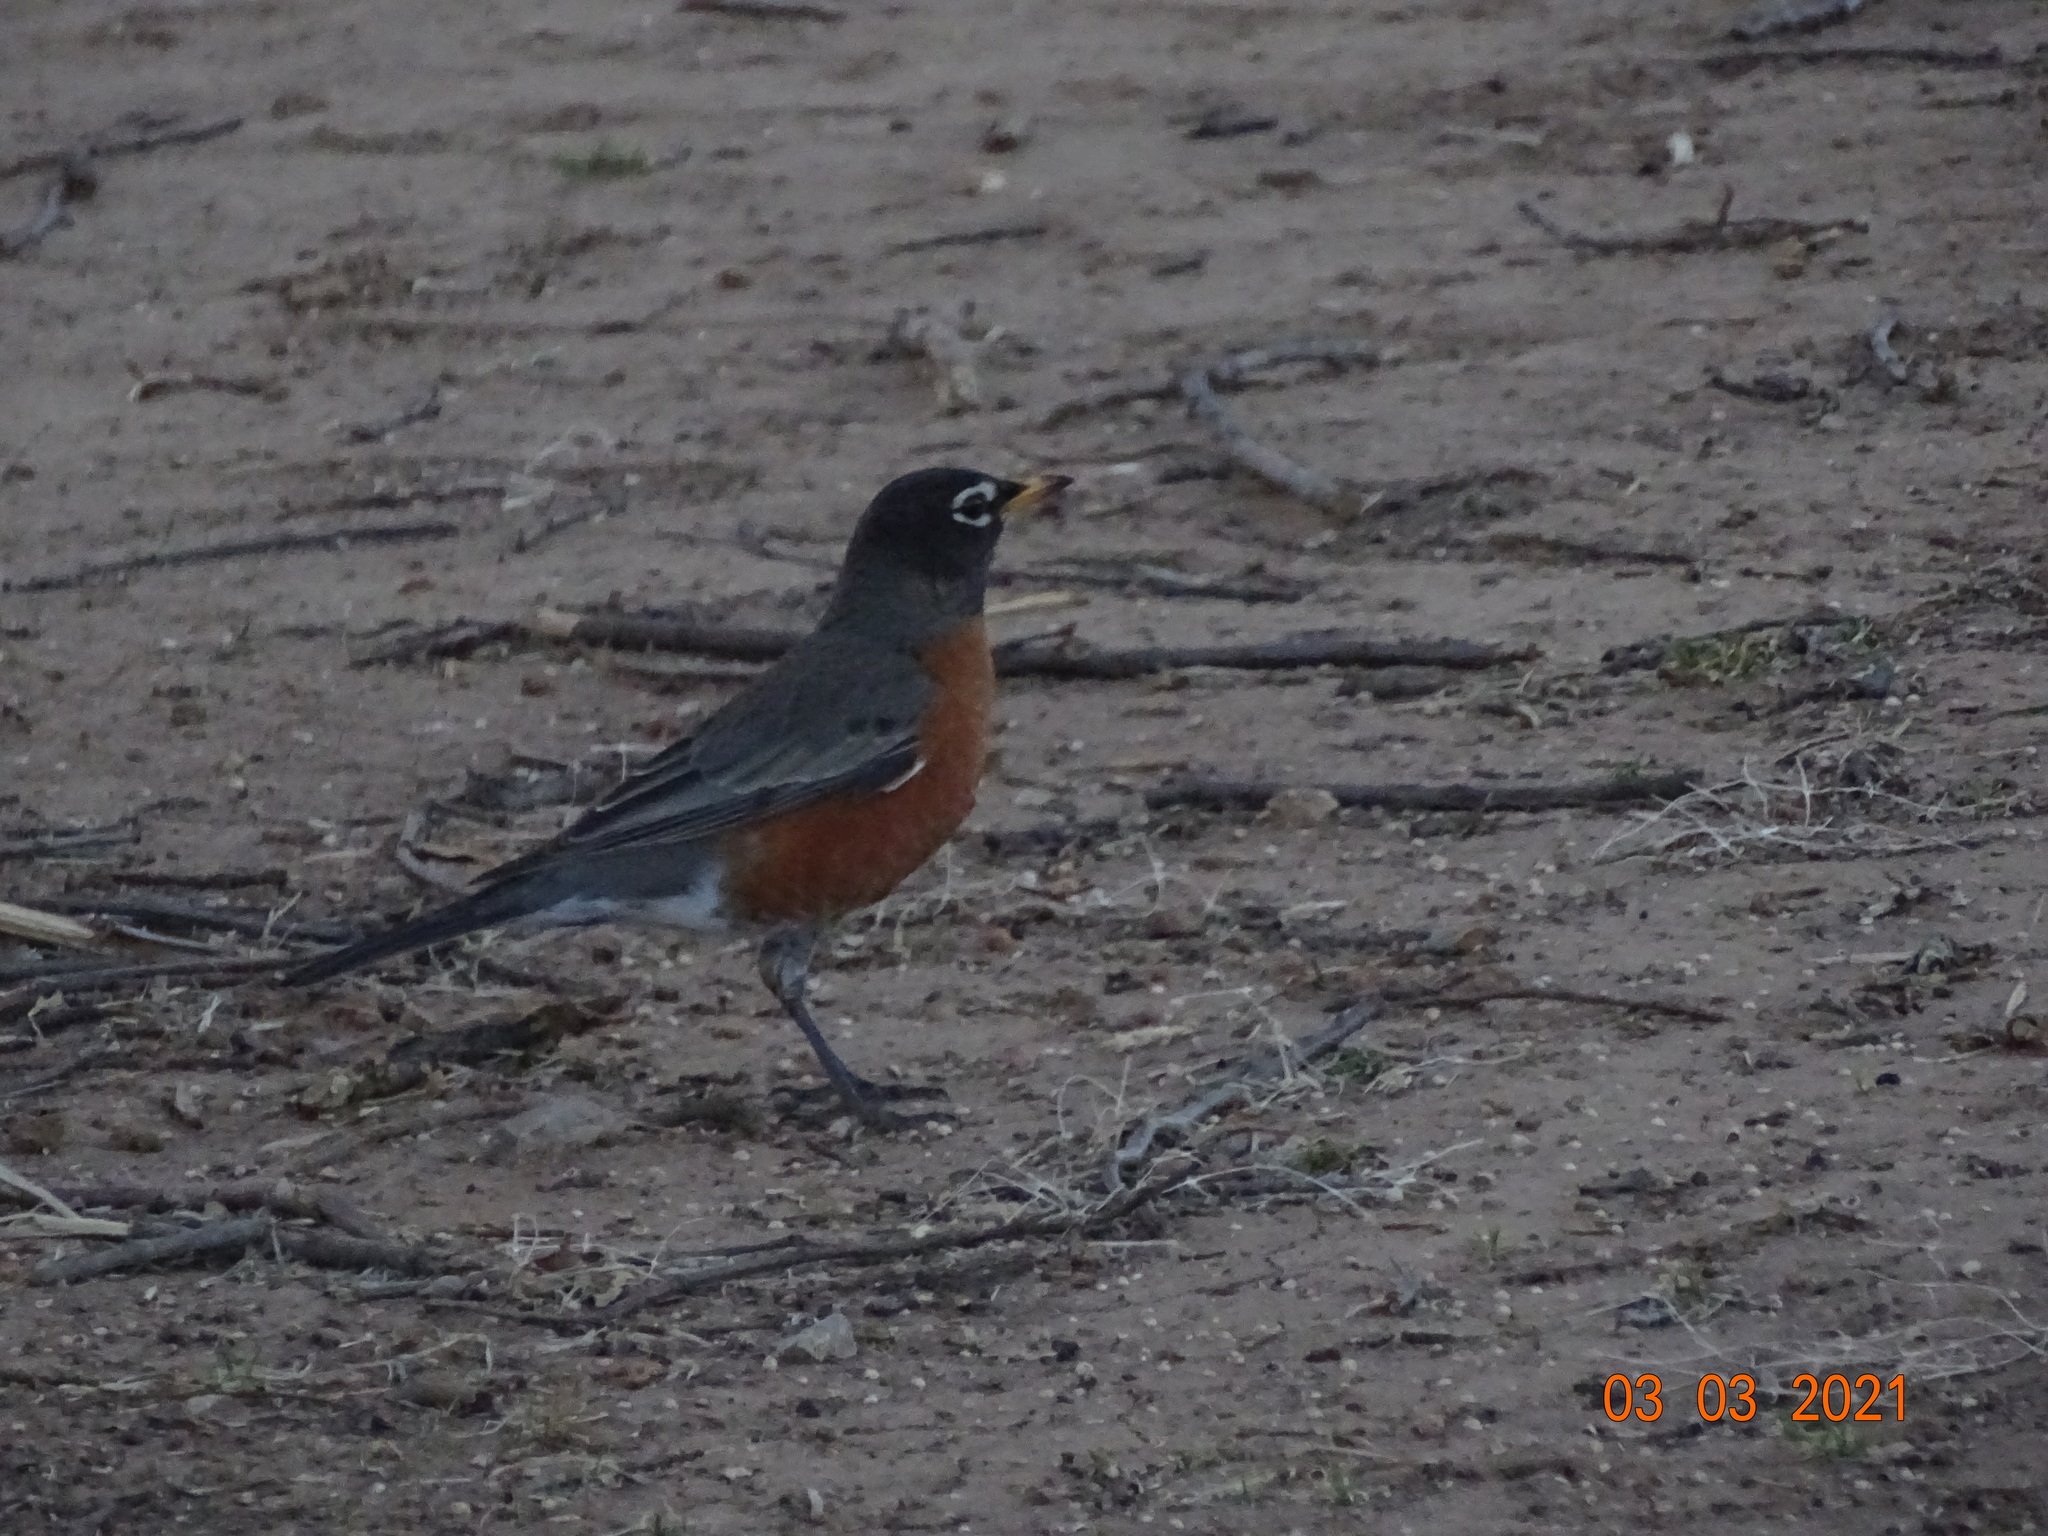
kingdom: Animalia
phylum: Chordata
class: Aves
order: Passeriformes
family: Turdidae
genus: Turdus
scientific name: Turdus migratorius
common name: American robin
